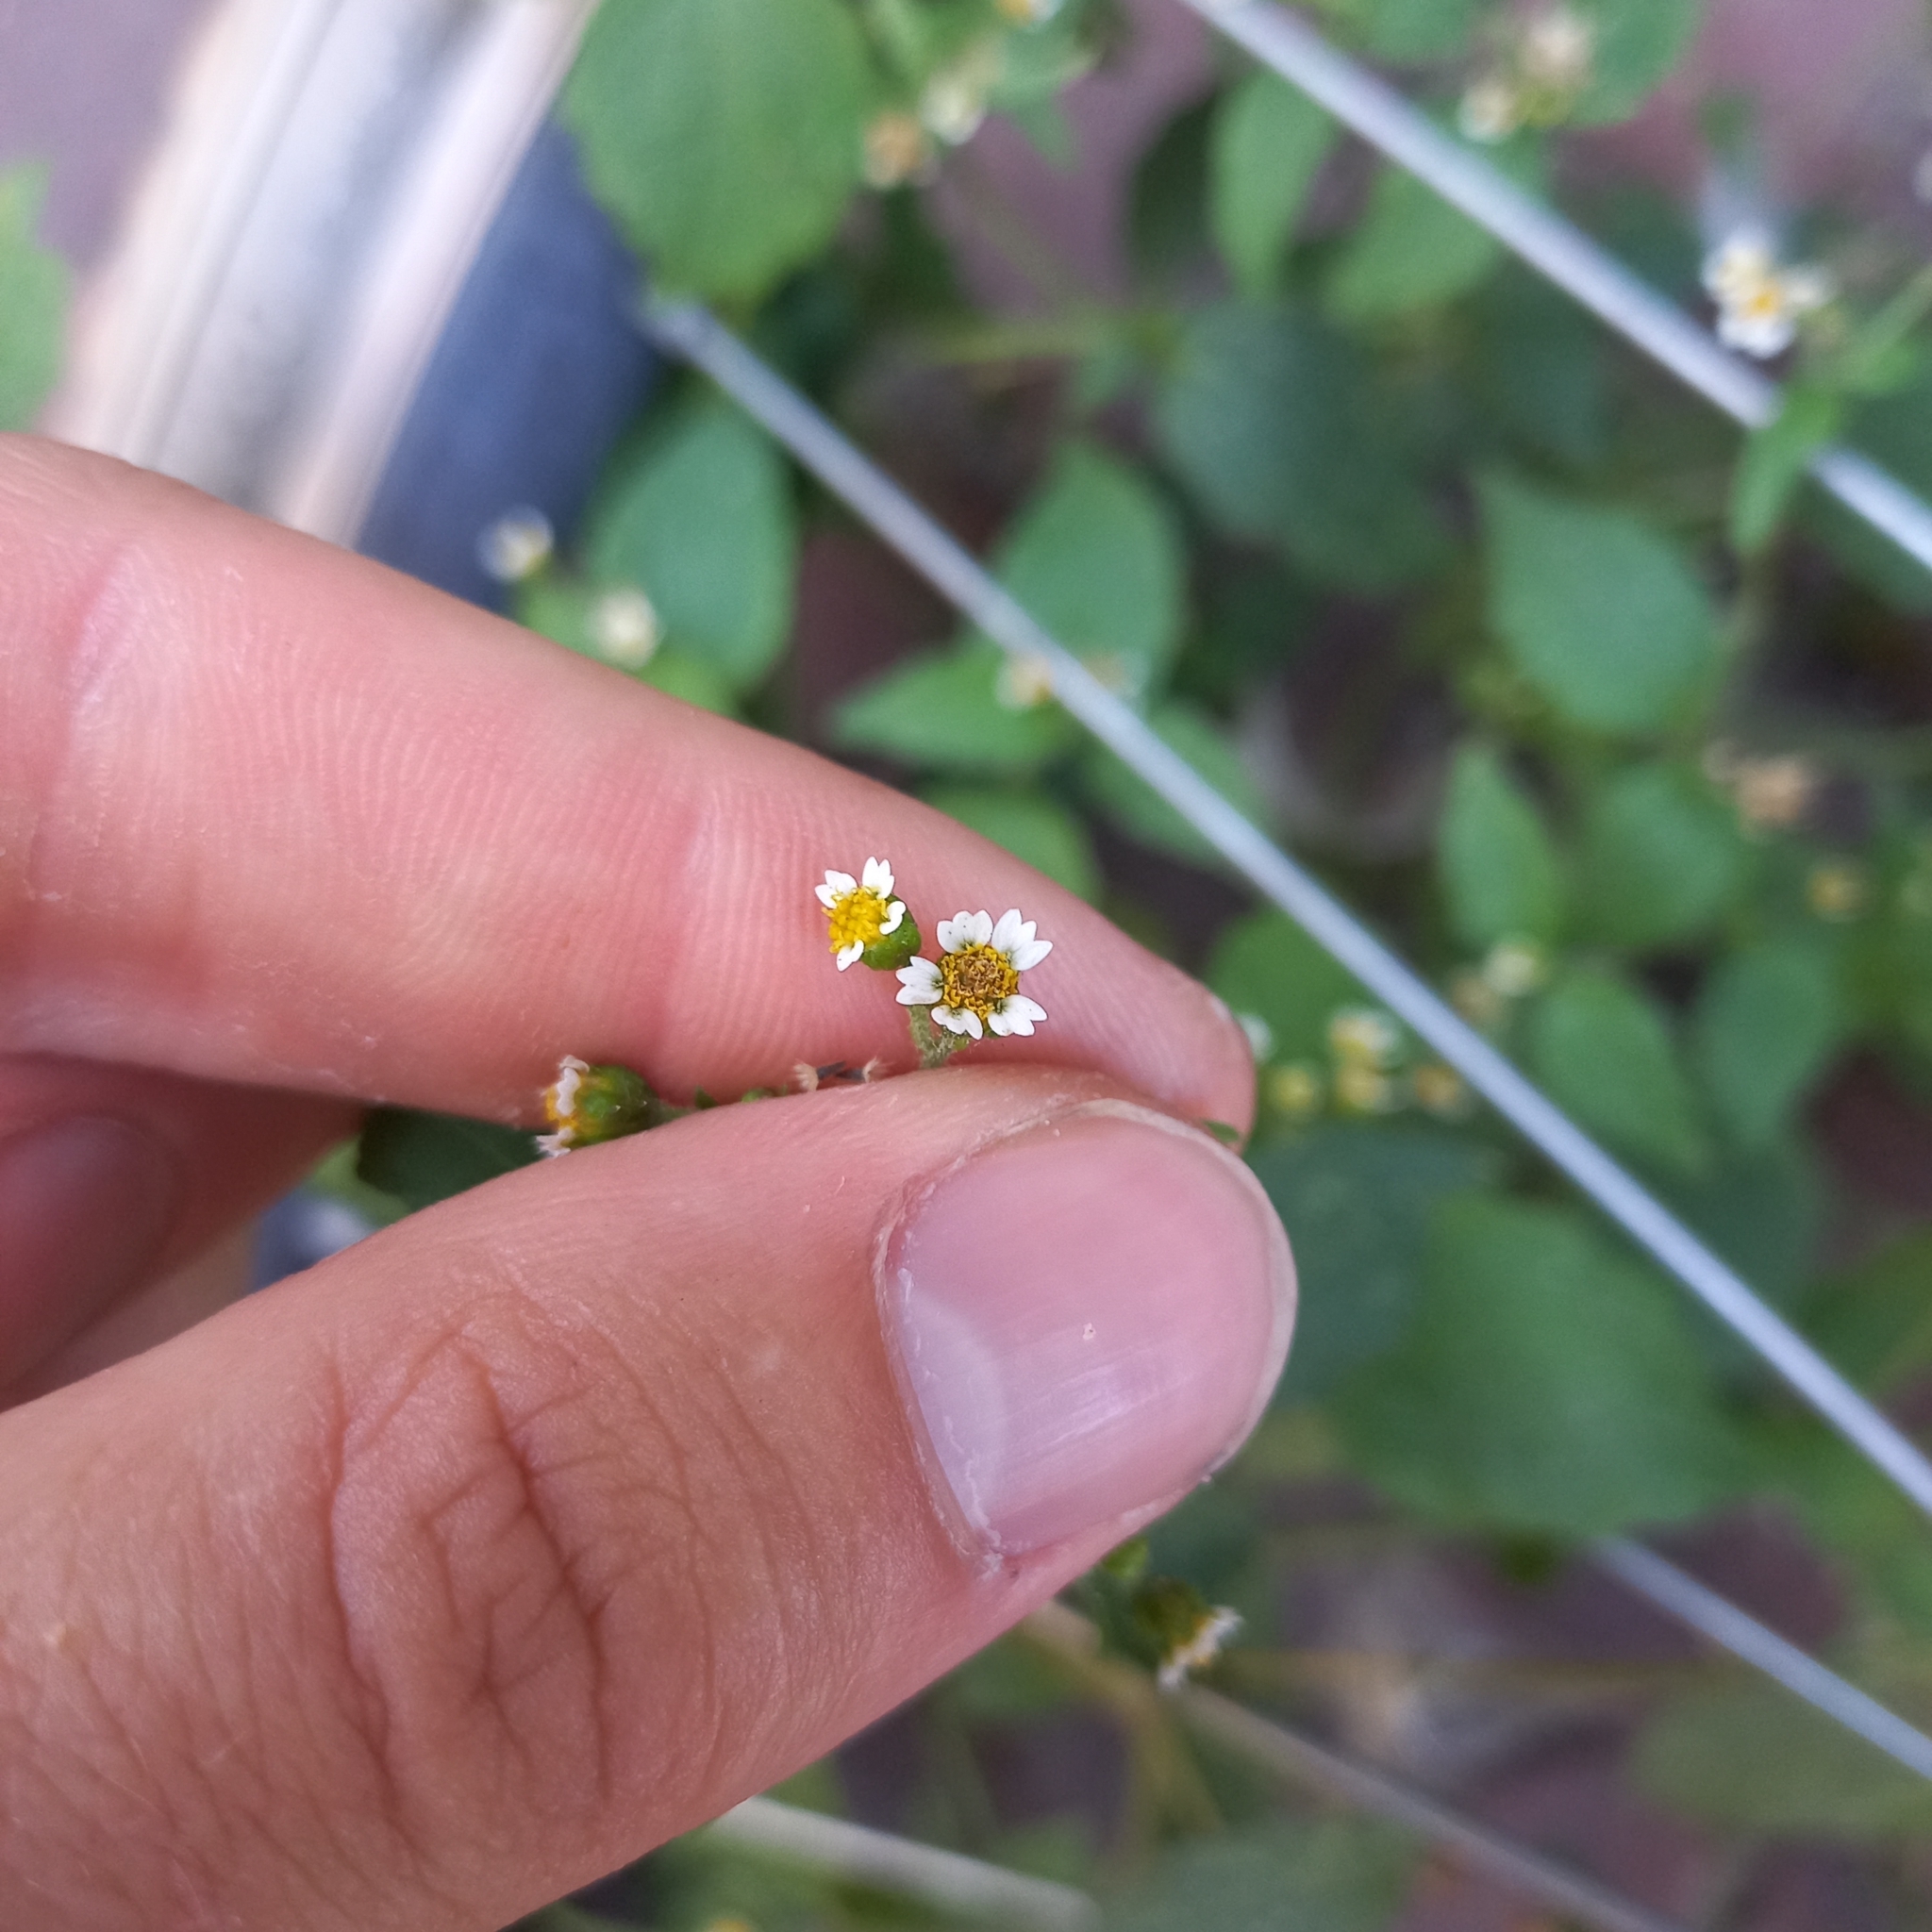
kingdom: Plantae
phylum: Tracheophyta
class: Magnoliopsida
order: Asterales
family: Asteraceae
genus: Galinsoga
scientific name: Galinsoga quadriradiata
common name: Shaggy soldier
